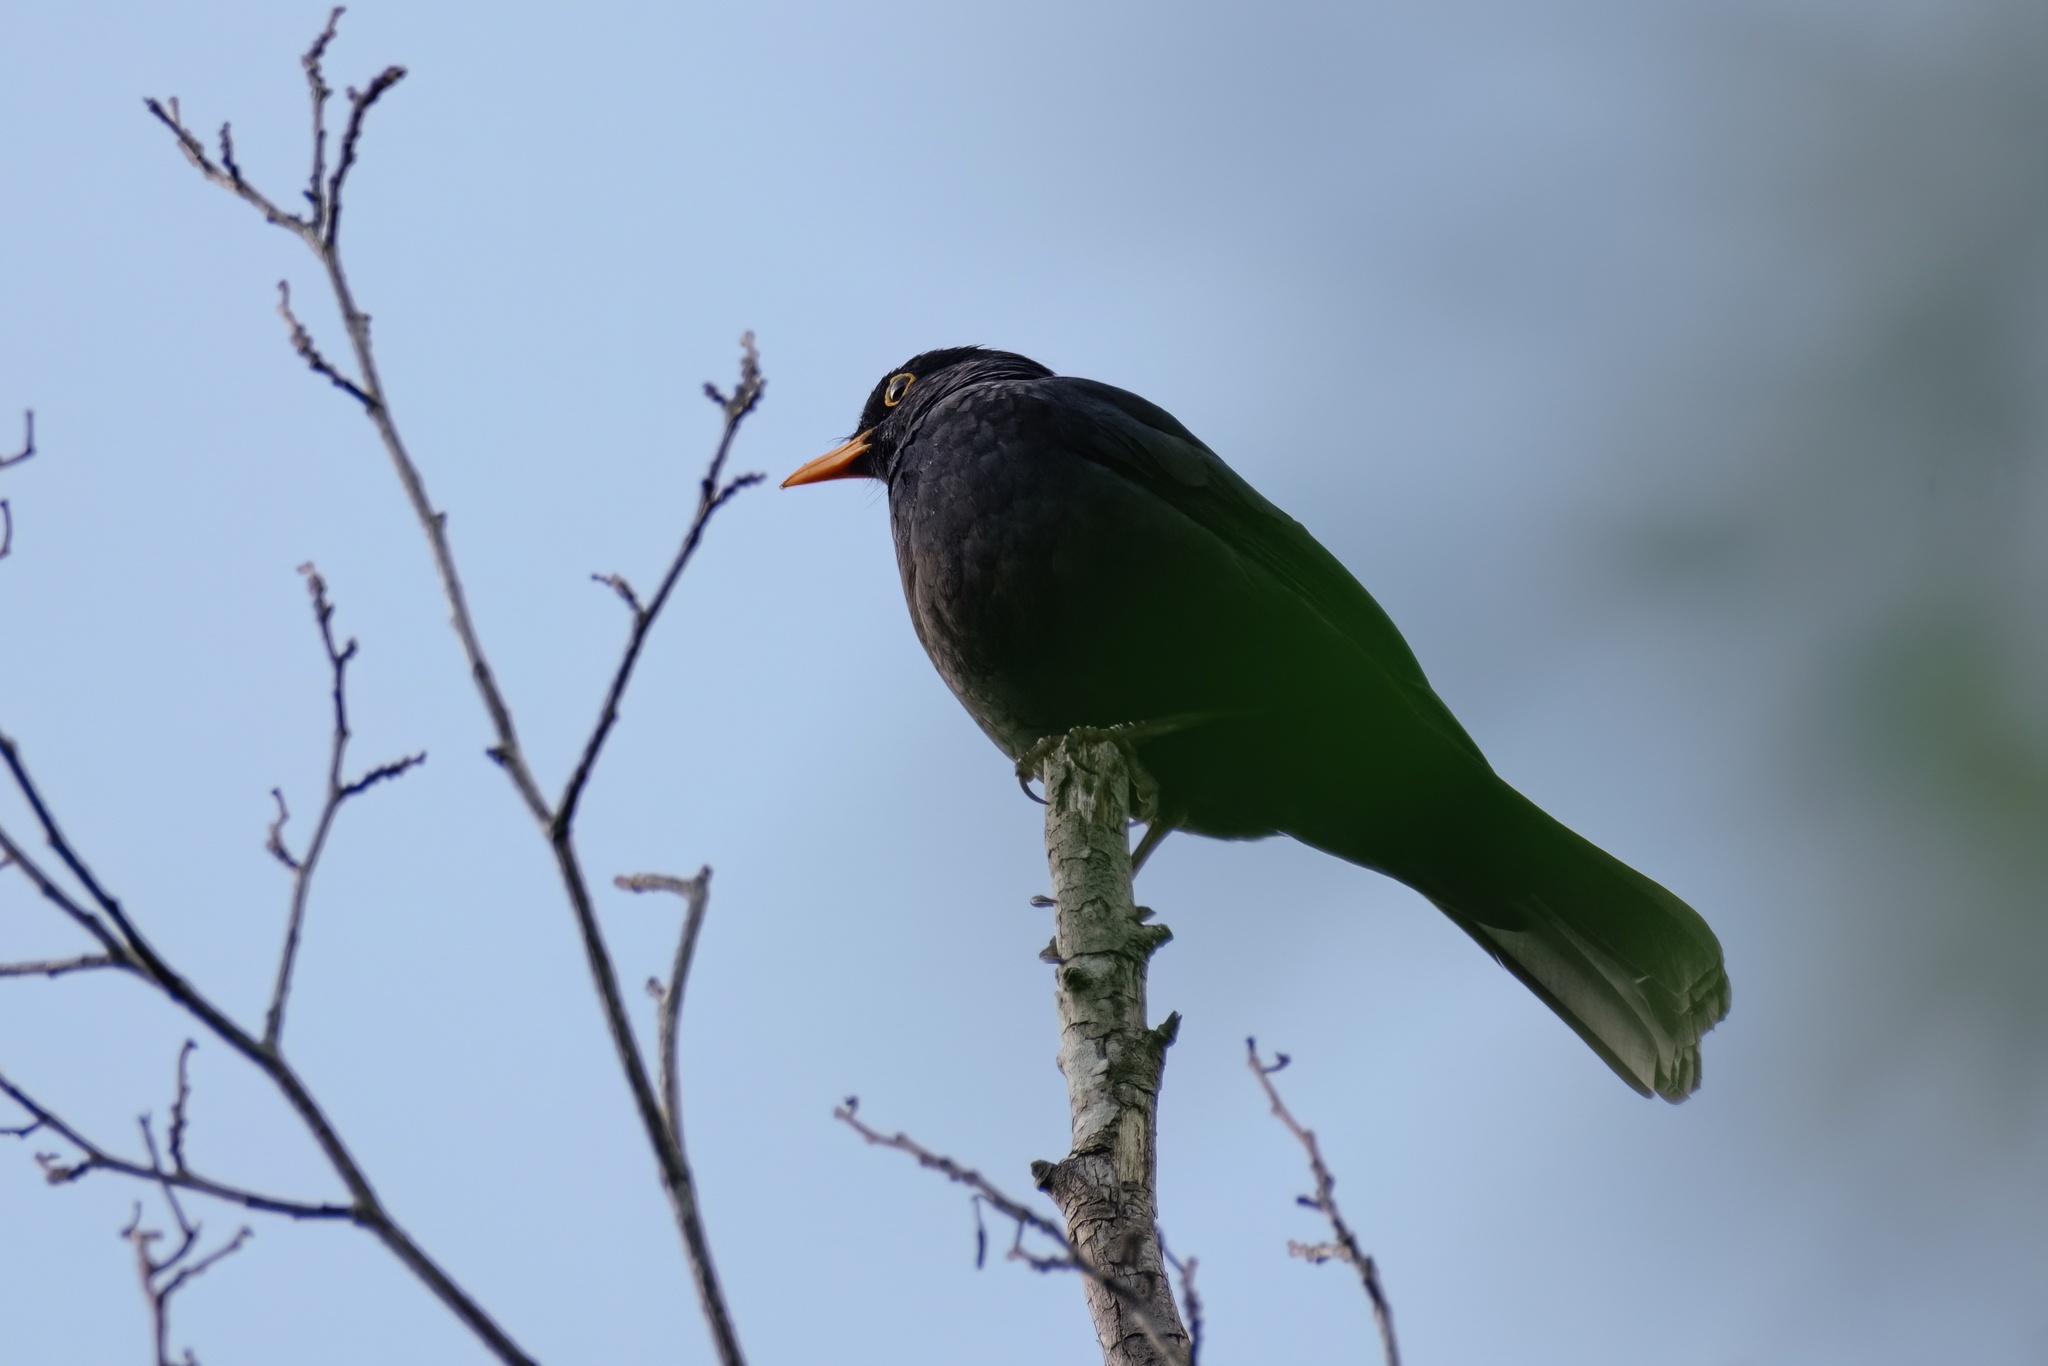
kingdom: Animalia
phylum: Chordata
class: Aves
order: Passeriformes
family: Turdidae
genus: Turdus
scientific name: Turdus merula
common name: Common blackbird
